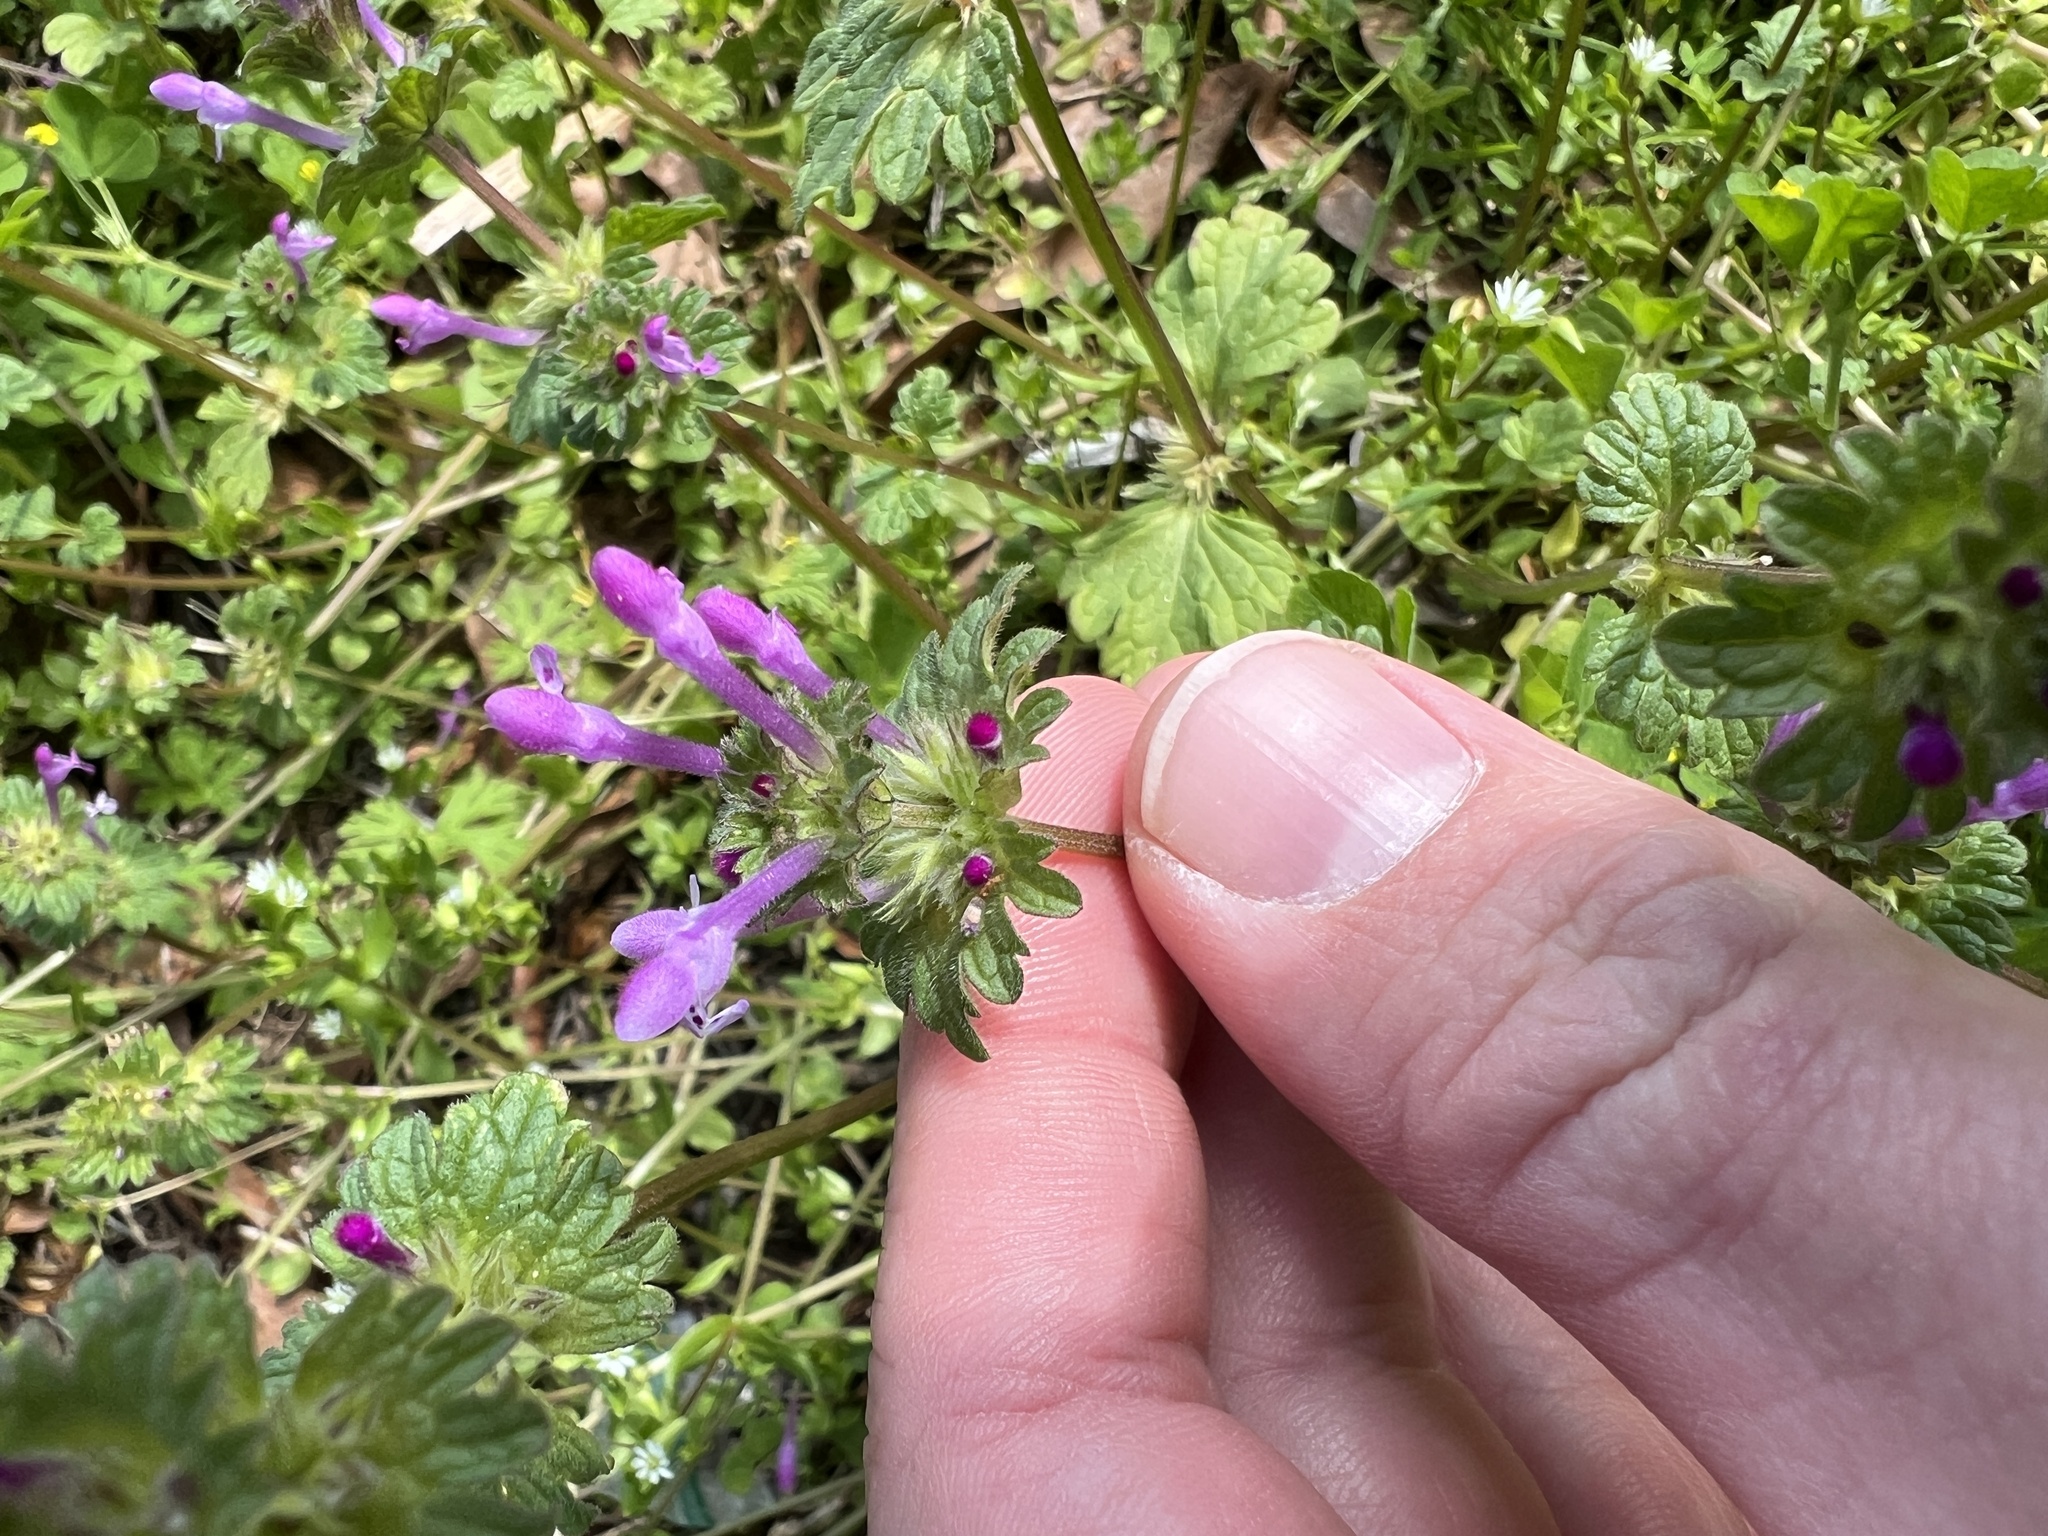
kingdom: Plantae
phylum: Tracheophyta
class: Magnoliopsida
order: Lamiales
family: Lamiaceae
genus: Lamium
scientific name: Lamium amplexicaule
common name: Henbit dead-nettle
